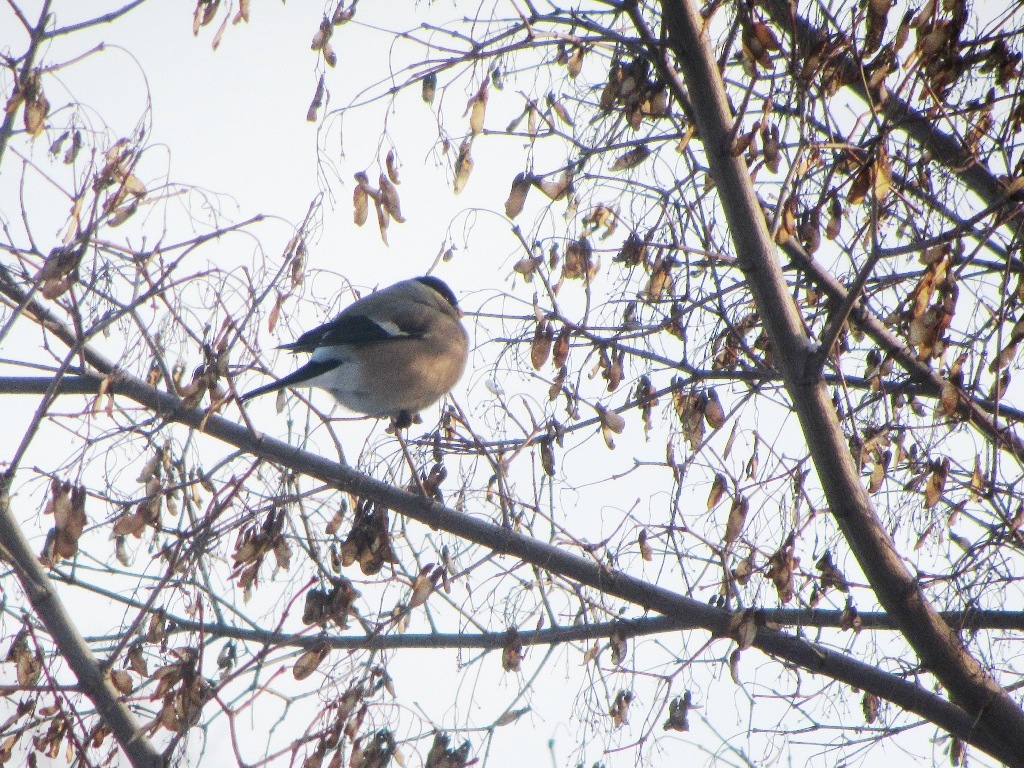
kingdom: Animalia
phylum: Chordata
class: Aves
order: Passeriformes
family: Fringillidae
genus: Pyrrhula
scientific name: Pyrrhula pyrrhula
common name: Eurasian bullfinch
